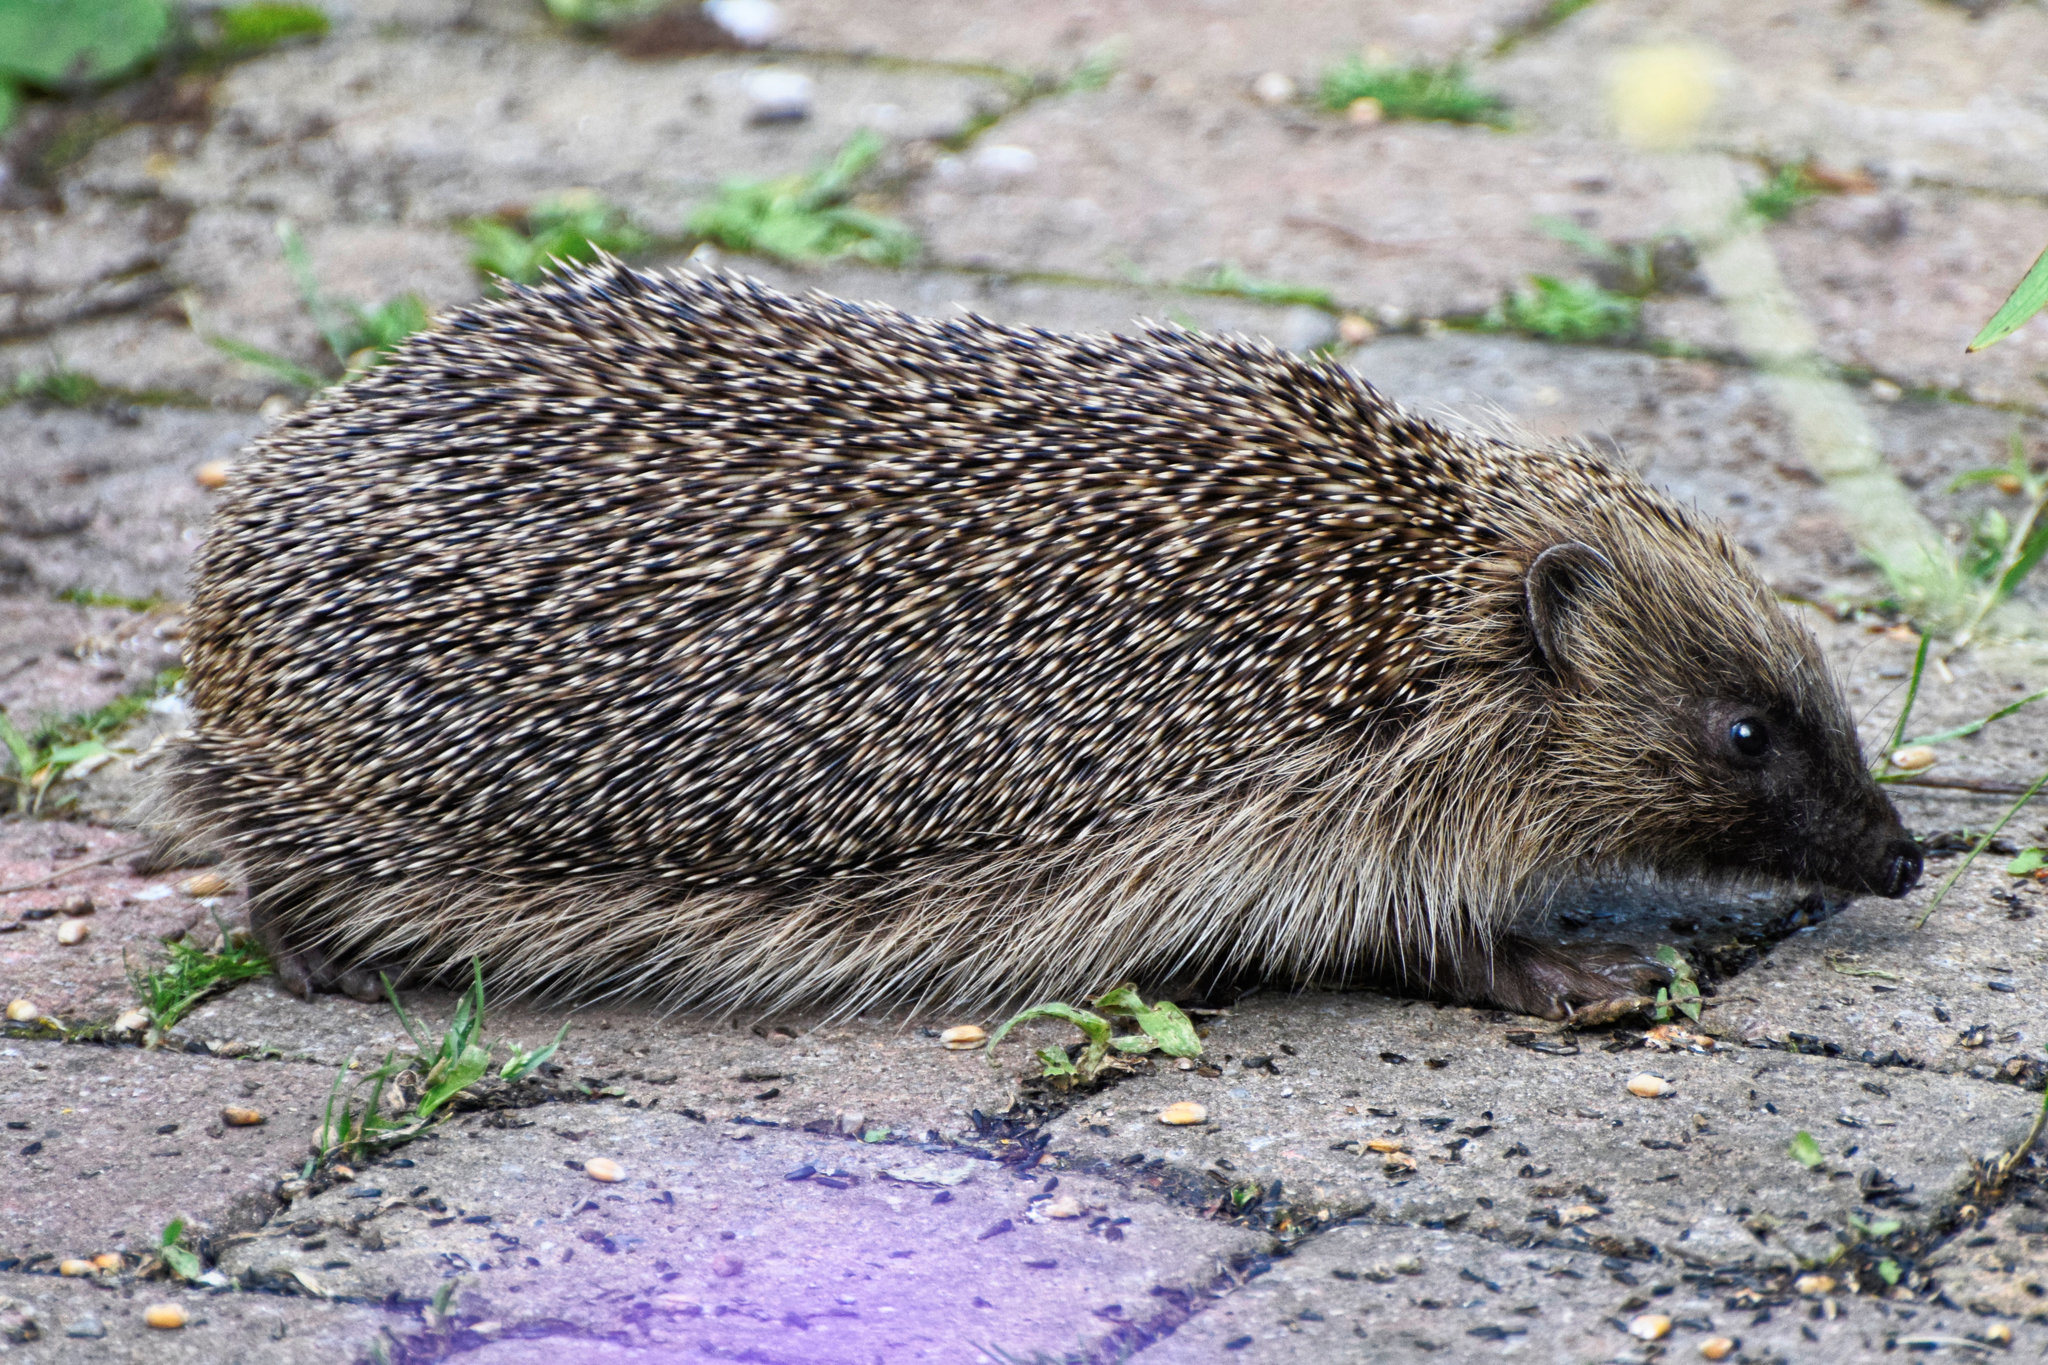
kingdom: Animalia
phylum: Chordata
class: Mammalia
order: Erinaceomorpha
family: Erinaceidae
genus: Erinaceus
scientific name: Erinaceus europaeus
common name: West european hedgehog
